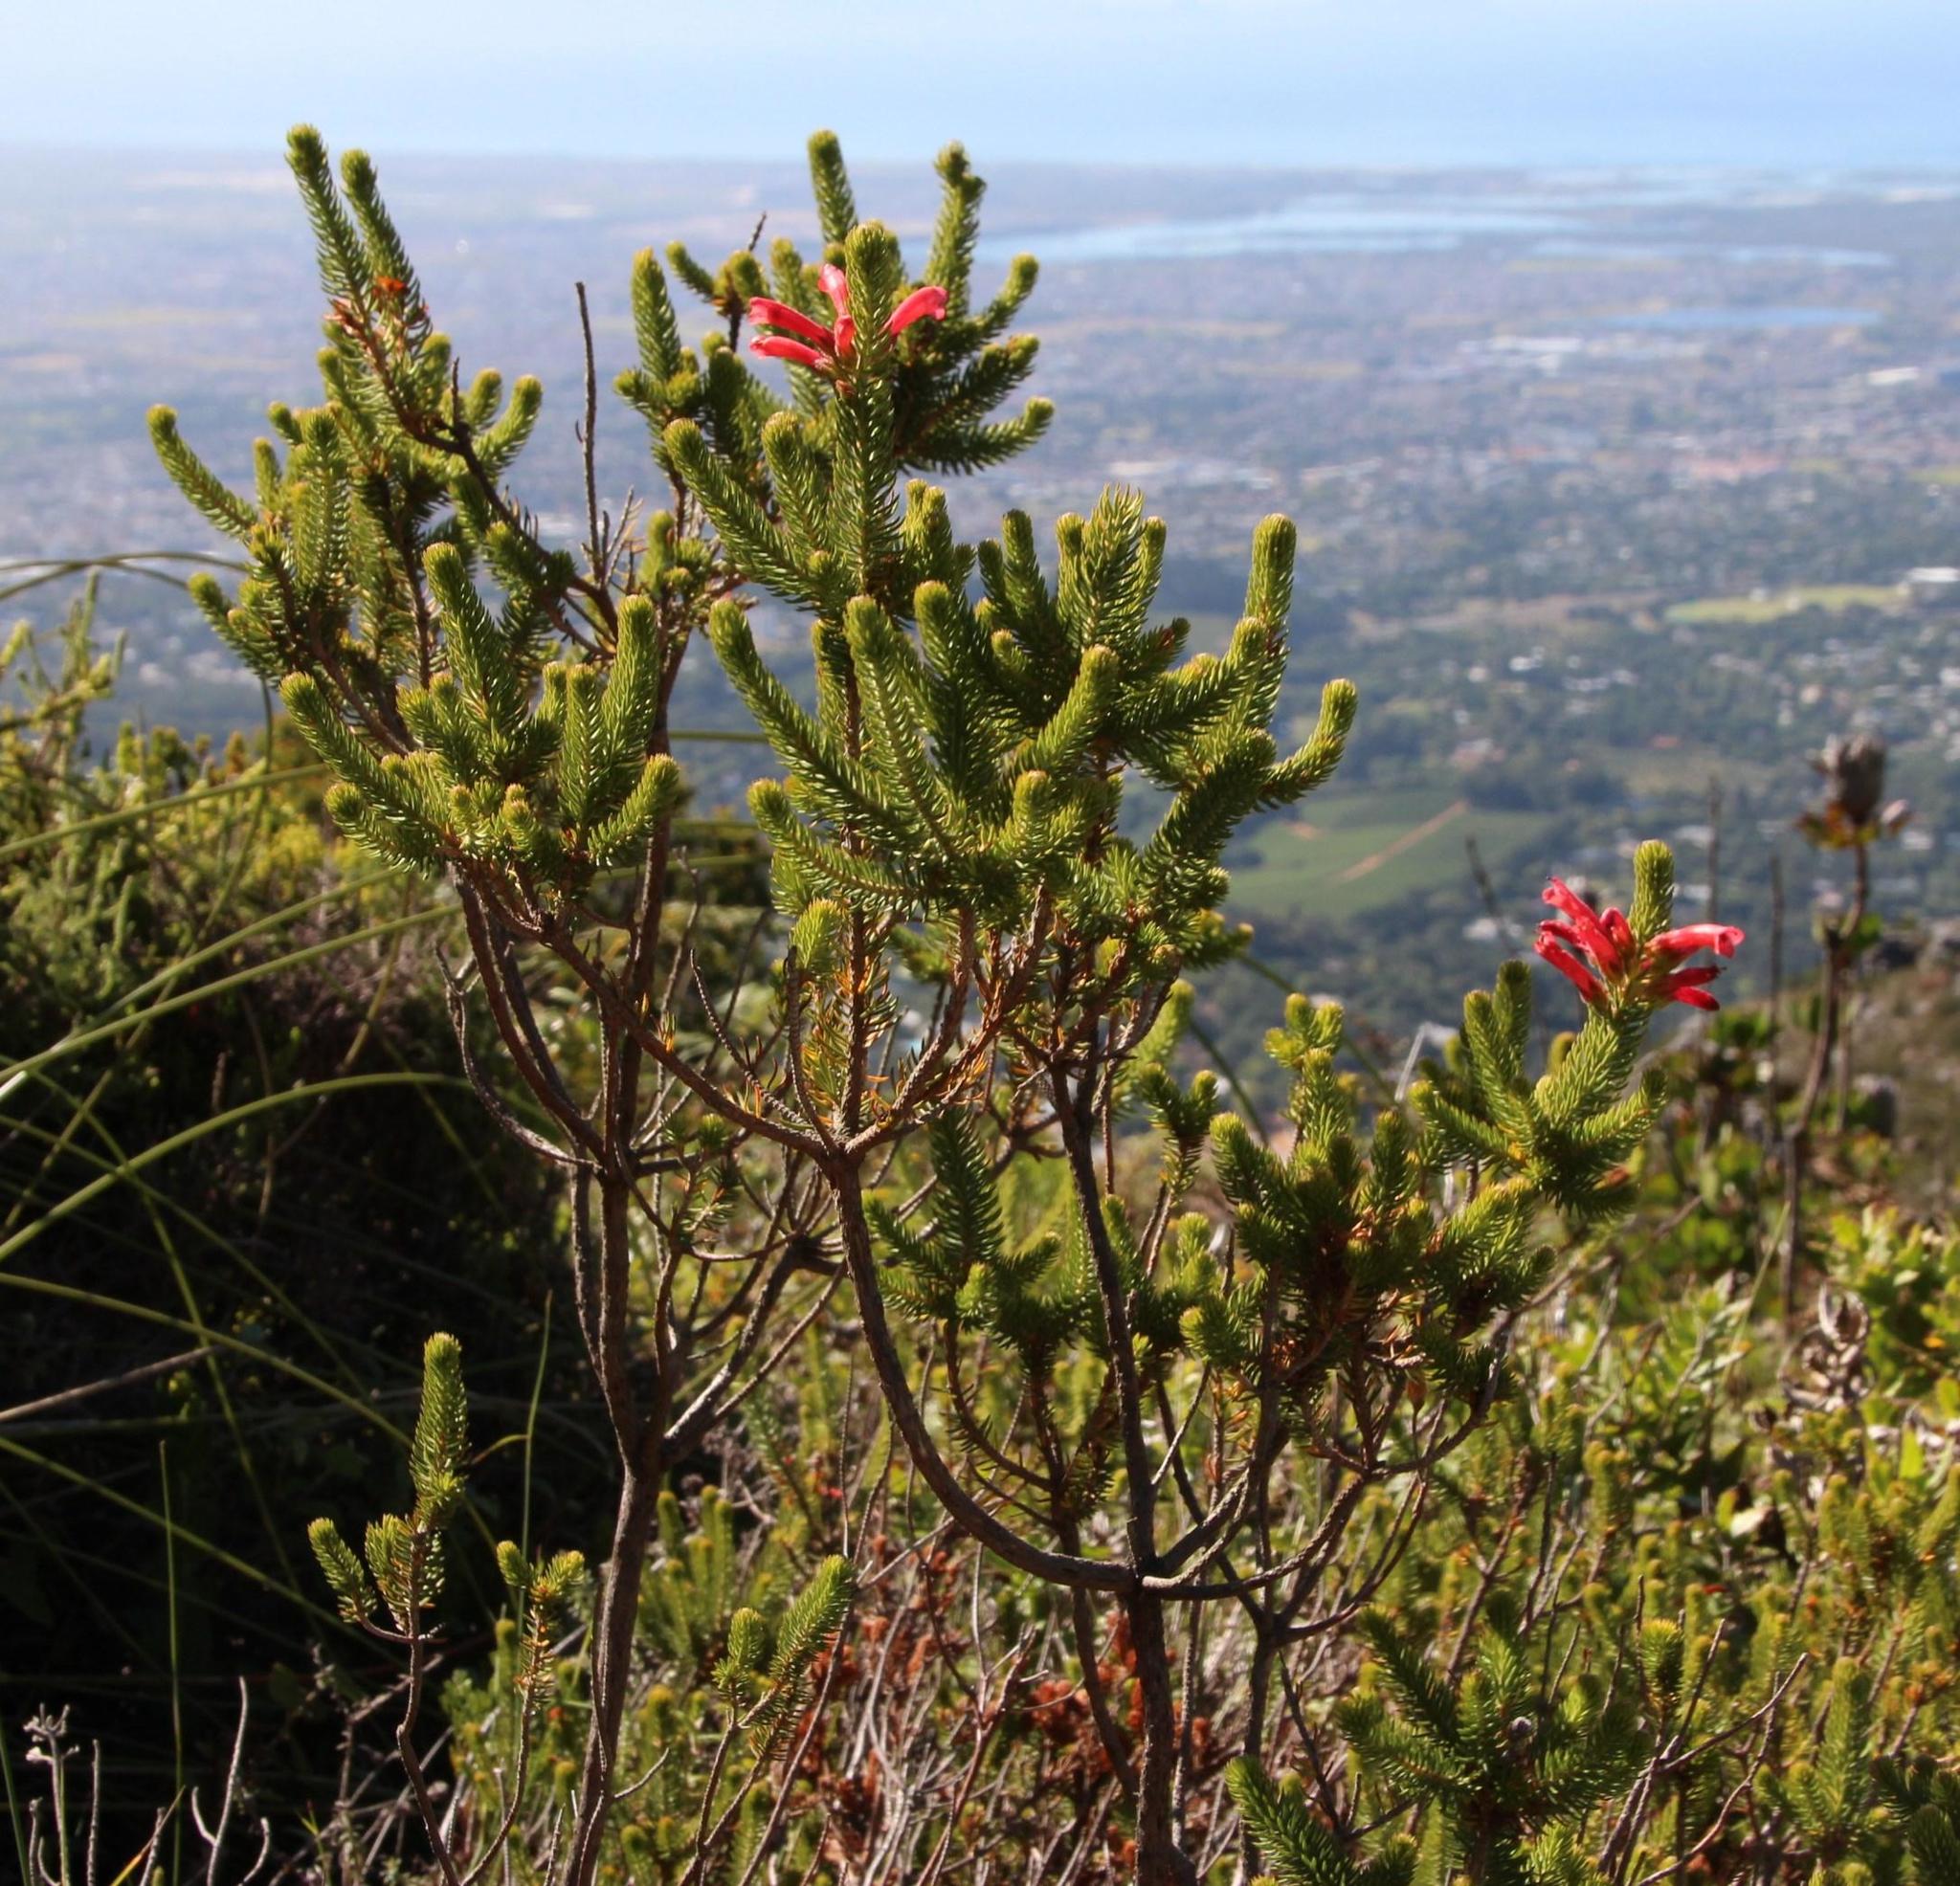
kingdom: Plantae
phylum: Tracheophyta
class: Magnoliopsida
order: Ericales
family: Ericaceae
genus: Erica
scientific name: Erica abietina
